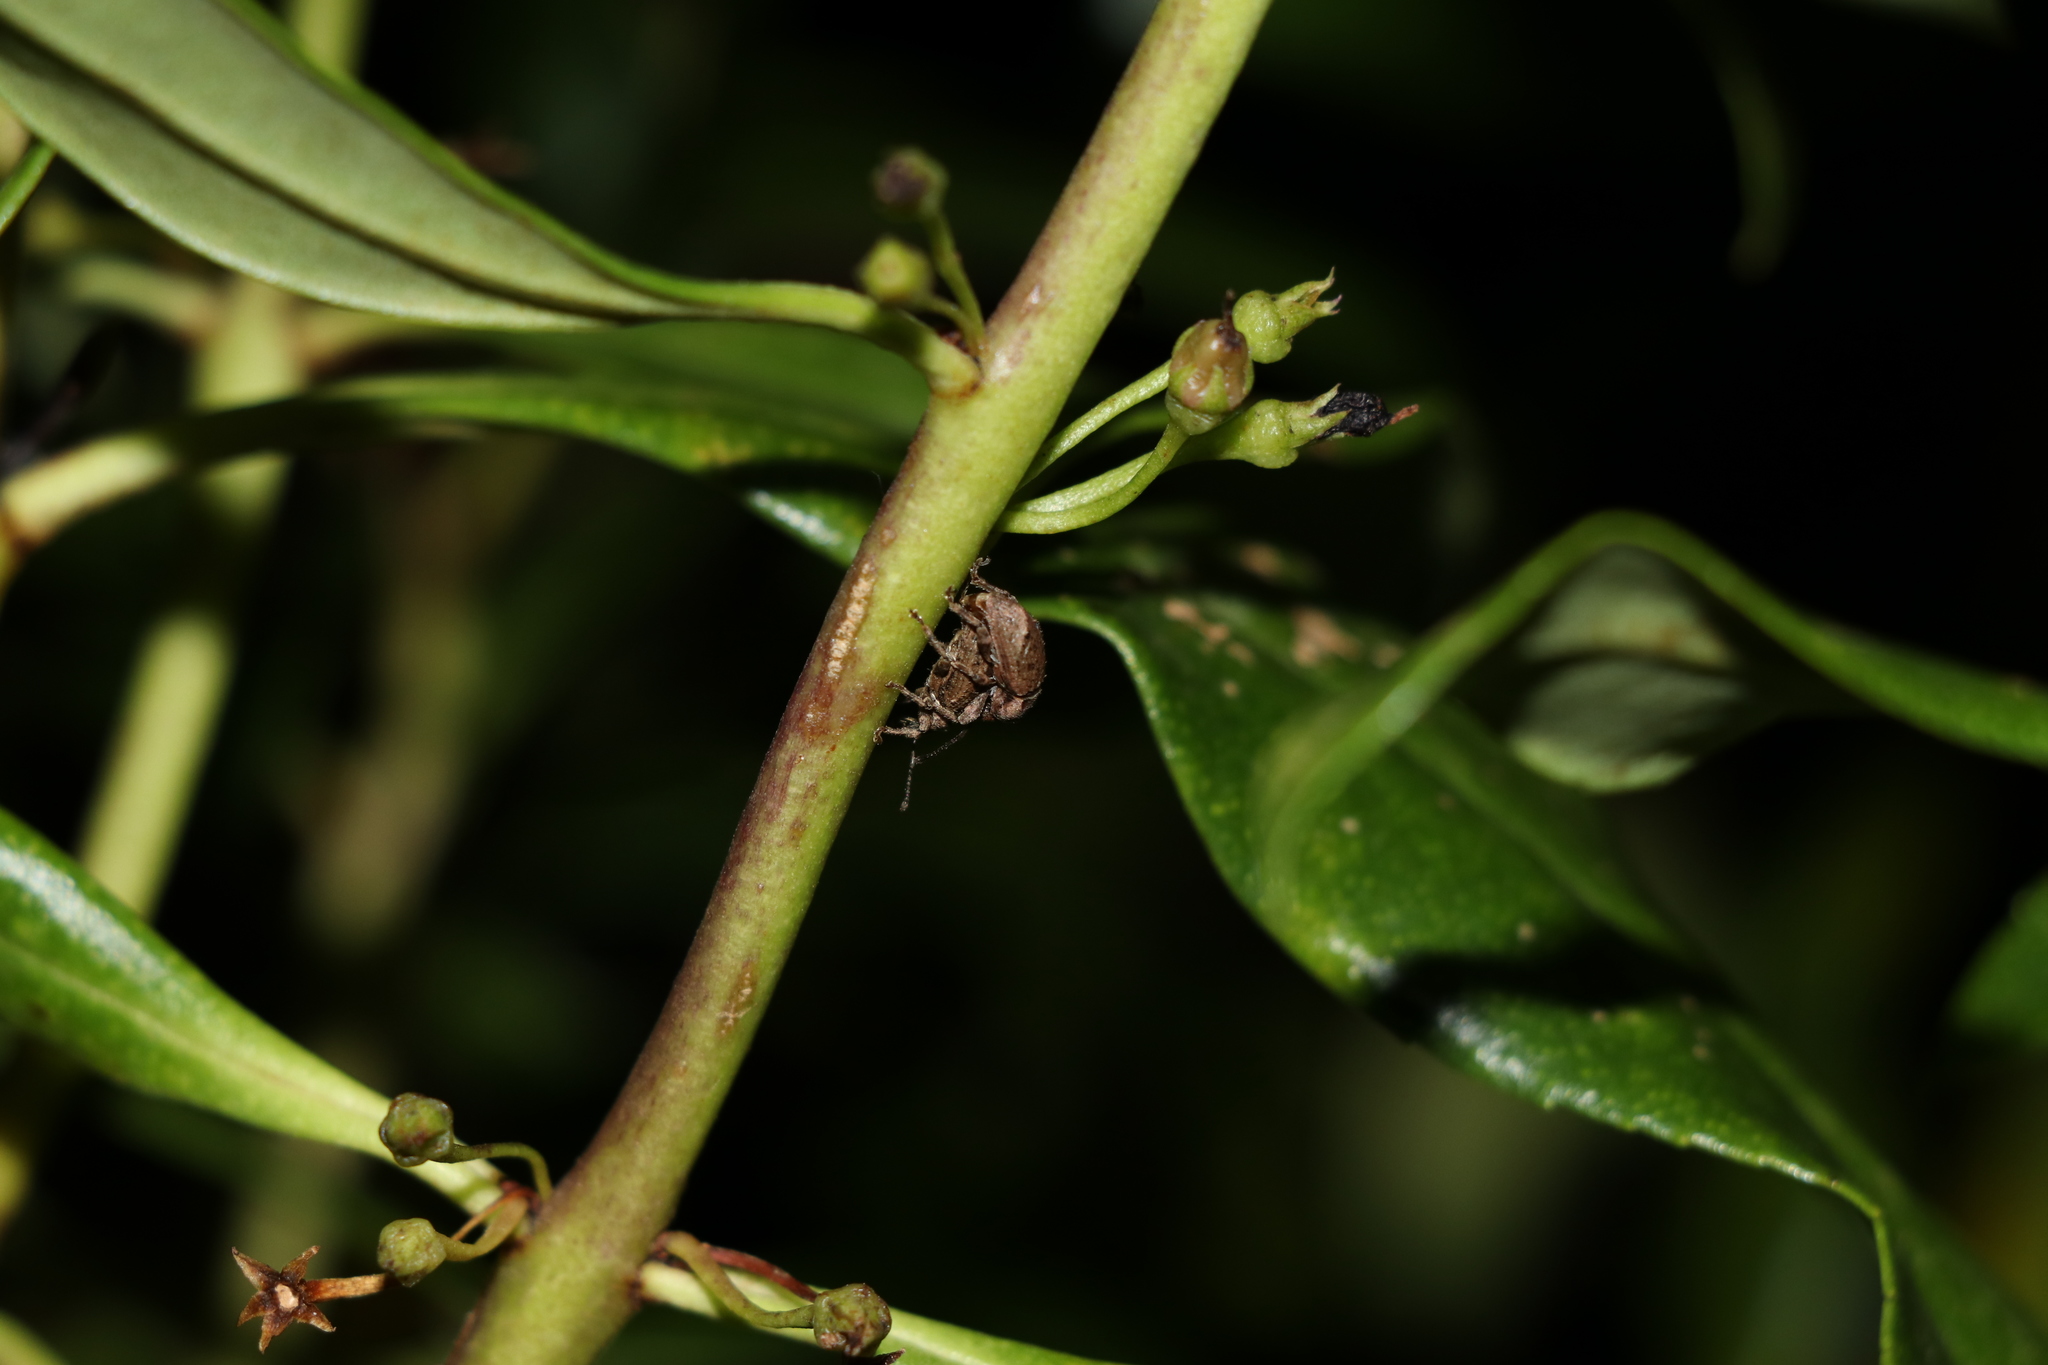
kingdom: Animalia
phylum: Arthropoda
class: Insecta
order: Coleoptera
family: Curculionidae
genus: Chalepistes
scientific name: Chalepistes compressus
